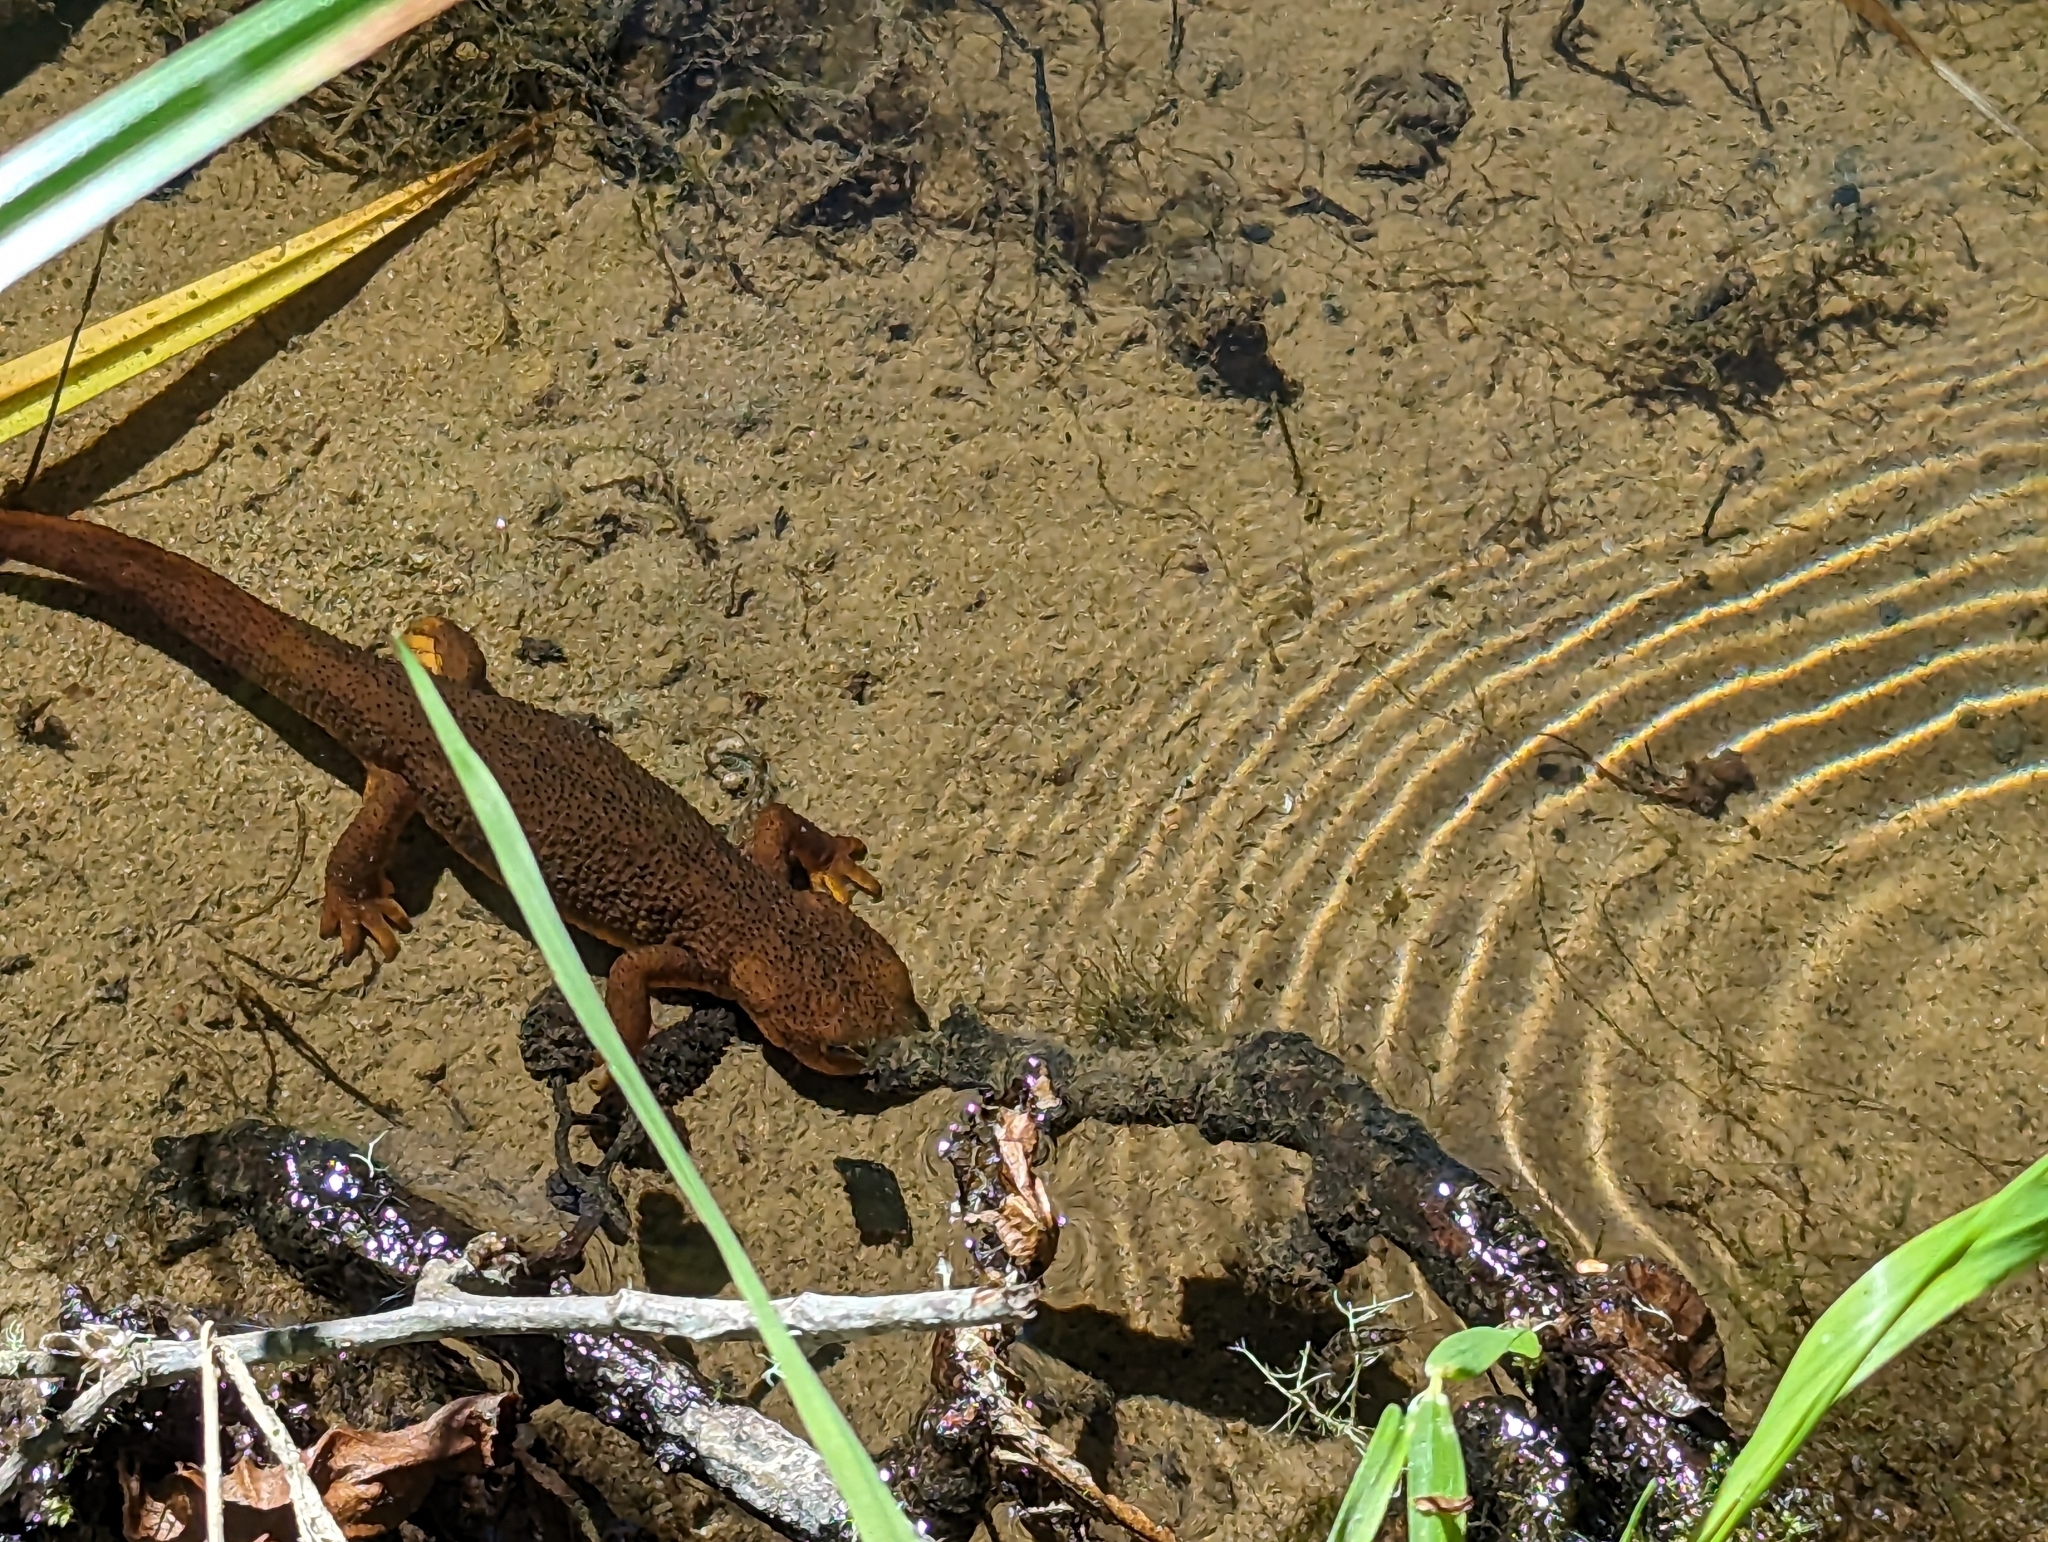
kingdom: Animalia
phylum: Chordata
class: Amphibia
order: Caudata
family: Salamandridae
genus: Taricha
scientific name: Taricha granulosa
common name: Roughskin newt
